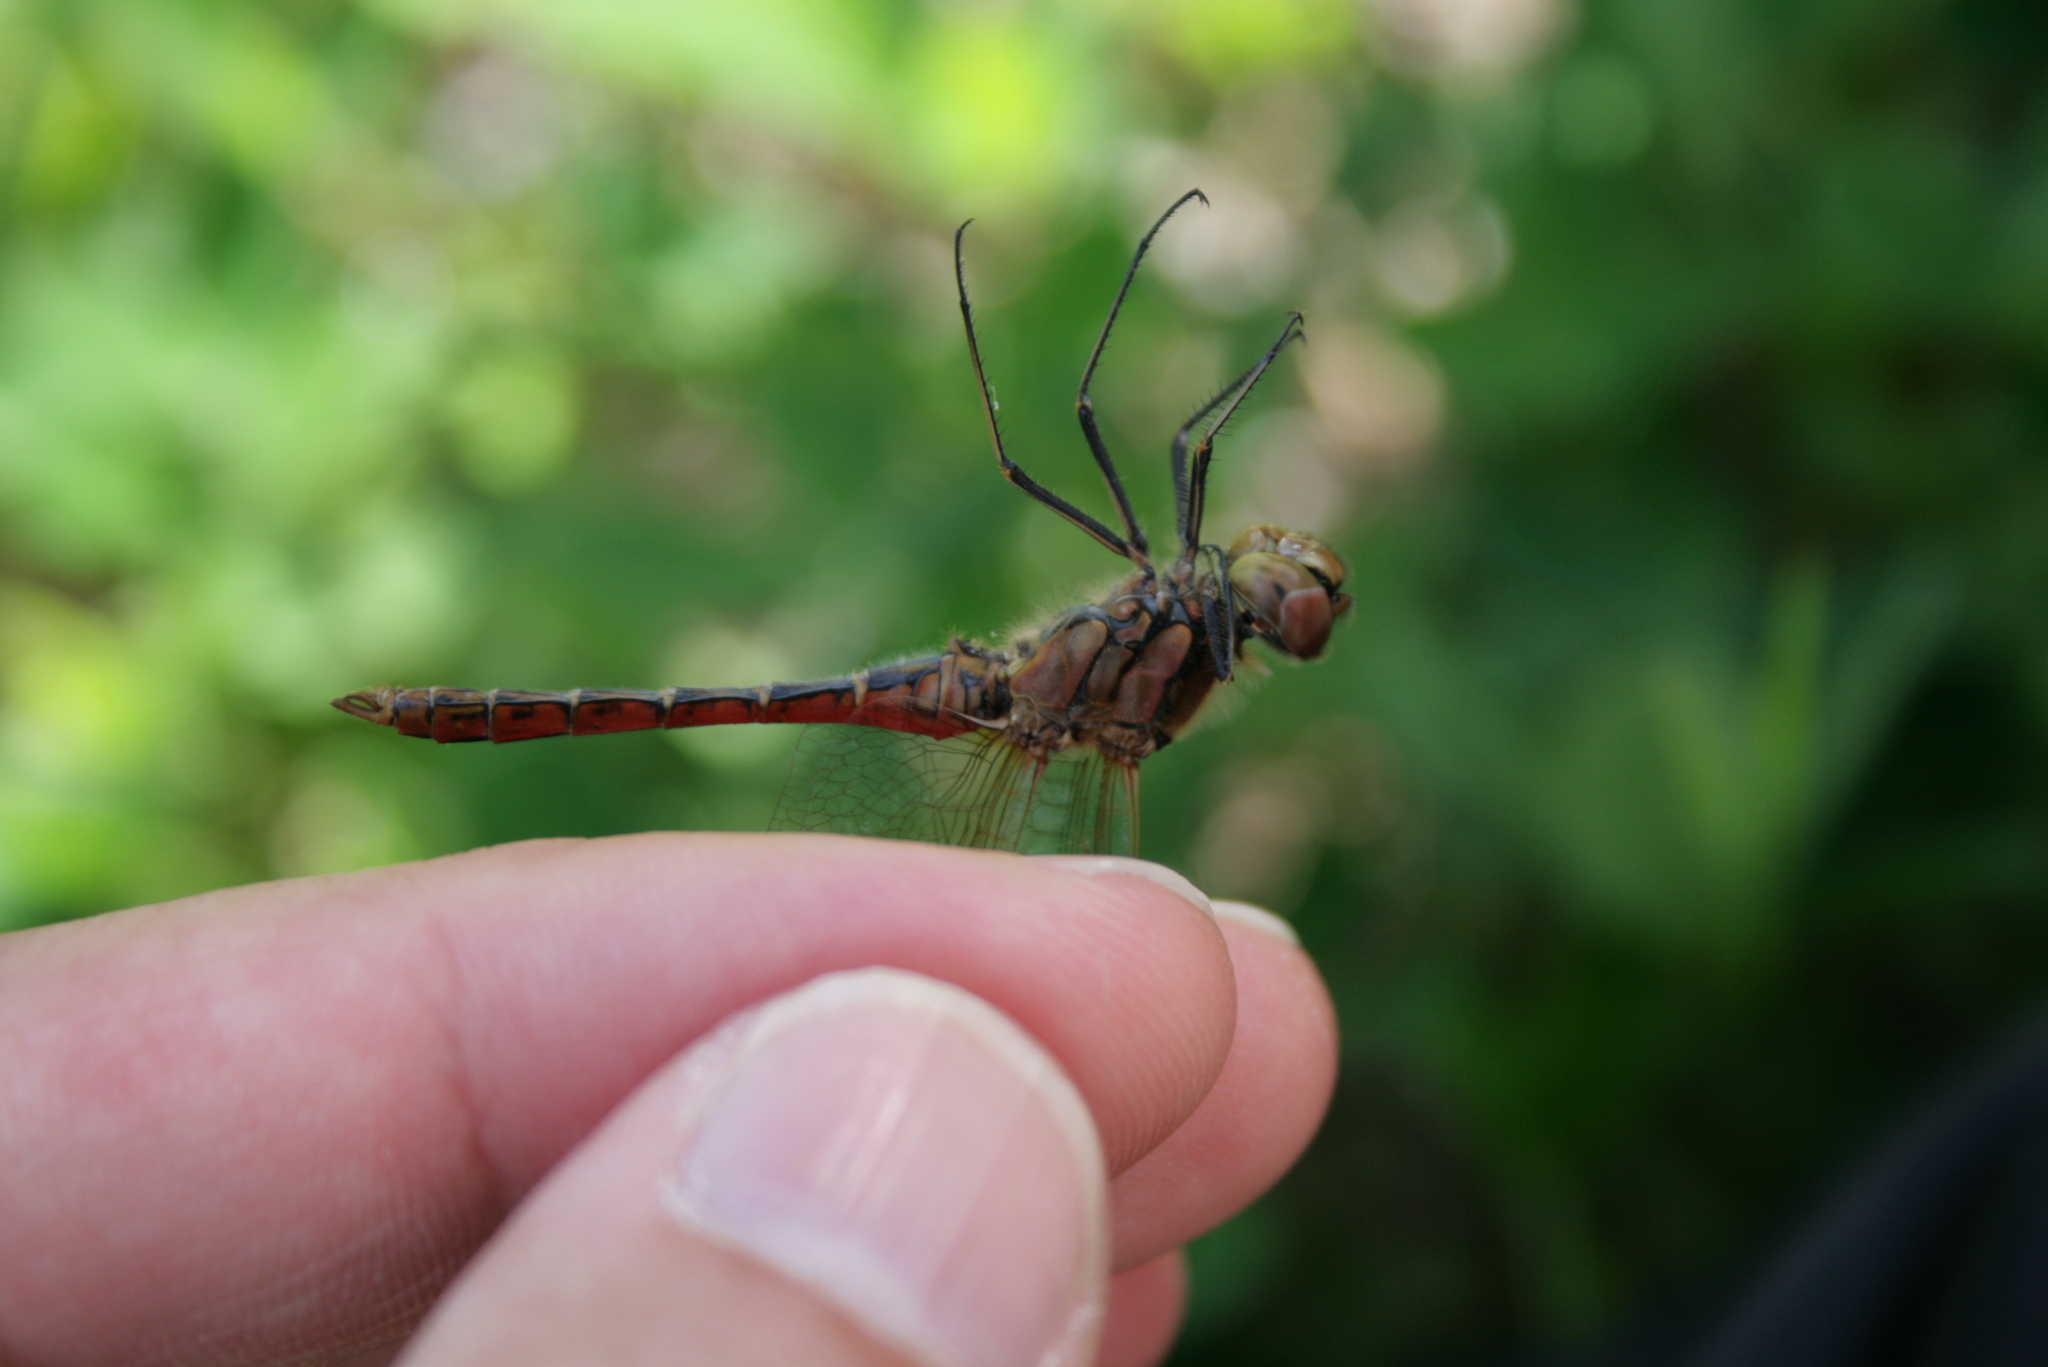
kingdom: Animalia
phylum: Arthropoda
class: Insecta
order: Odonata
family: Libellulidae
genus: Sympetrum
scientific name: Sympetrum vulgatum
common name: Vagrant darter
